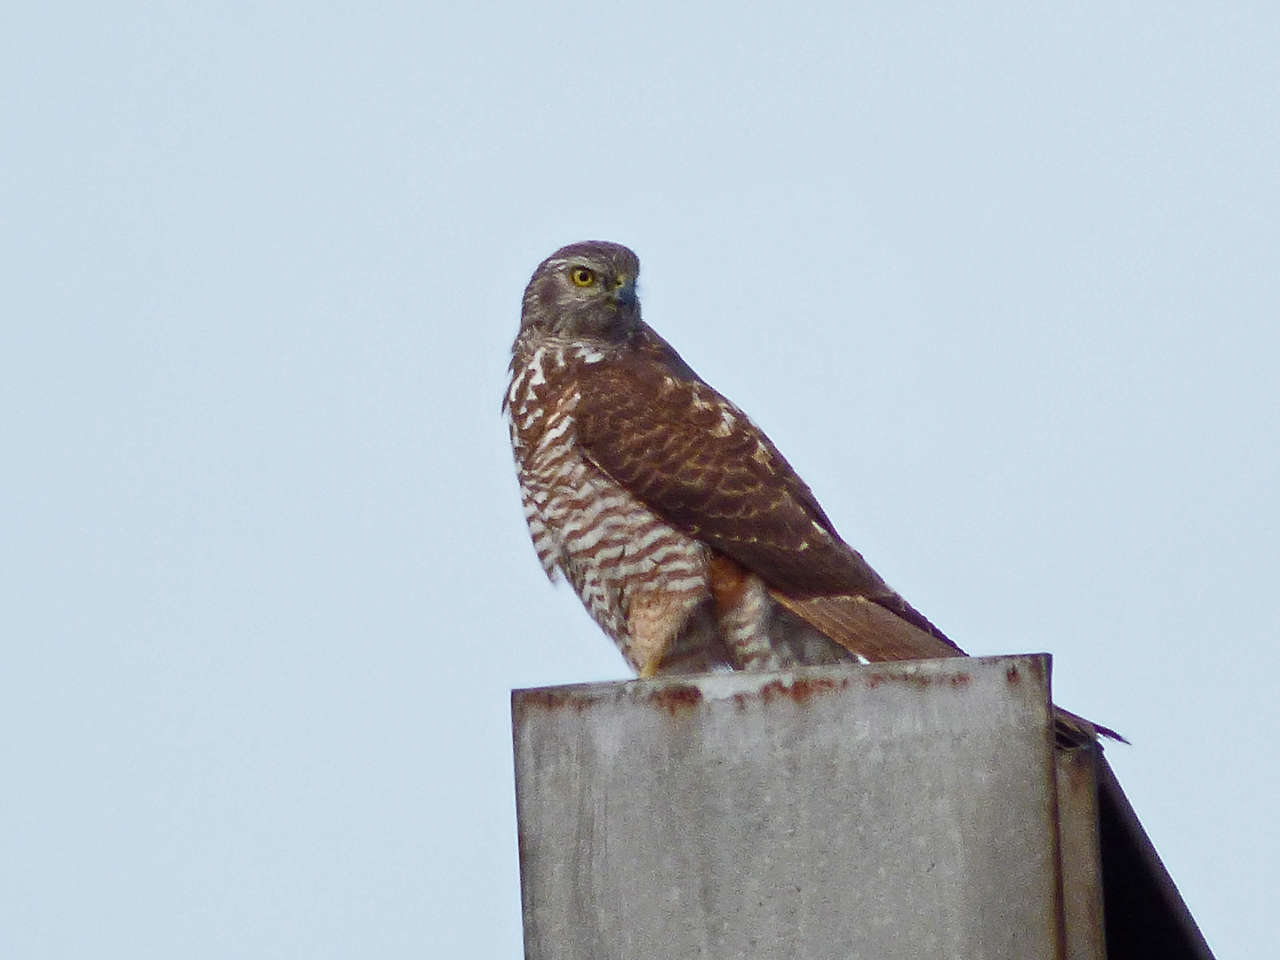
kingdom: Animalia
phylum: Chordata
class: Aves
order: Accipitriformes
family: Accipitridae
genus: Accipiter
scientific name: Accipiter fasciatus
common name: Brown goshawk
